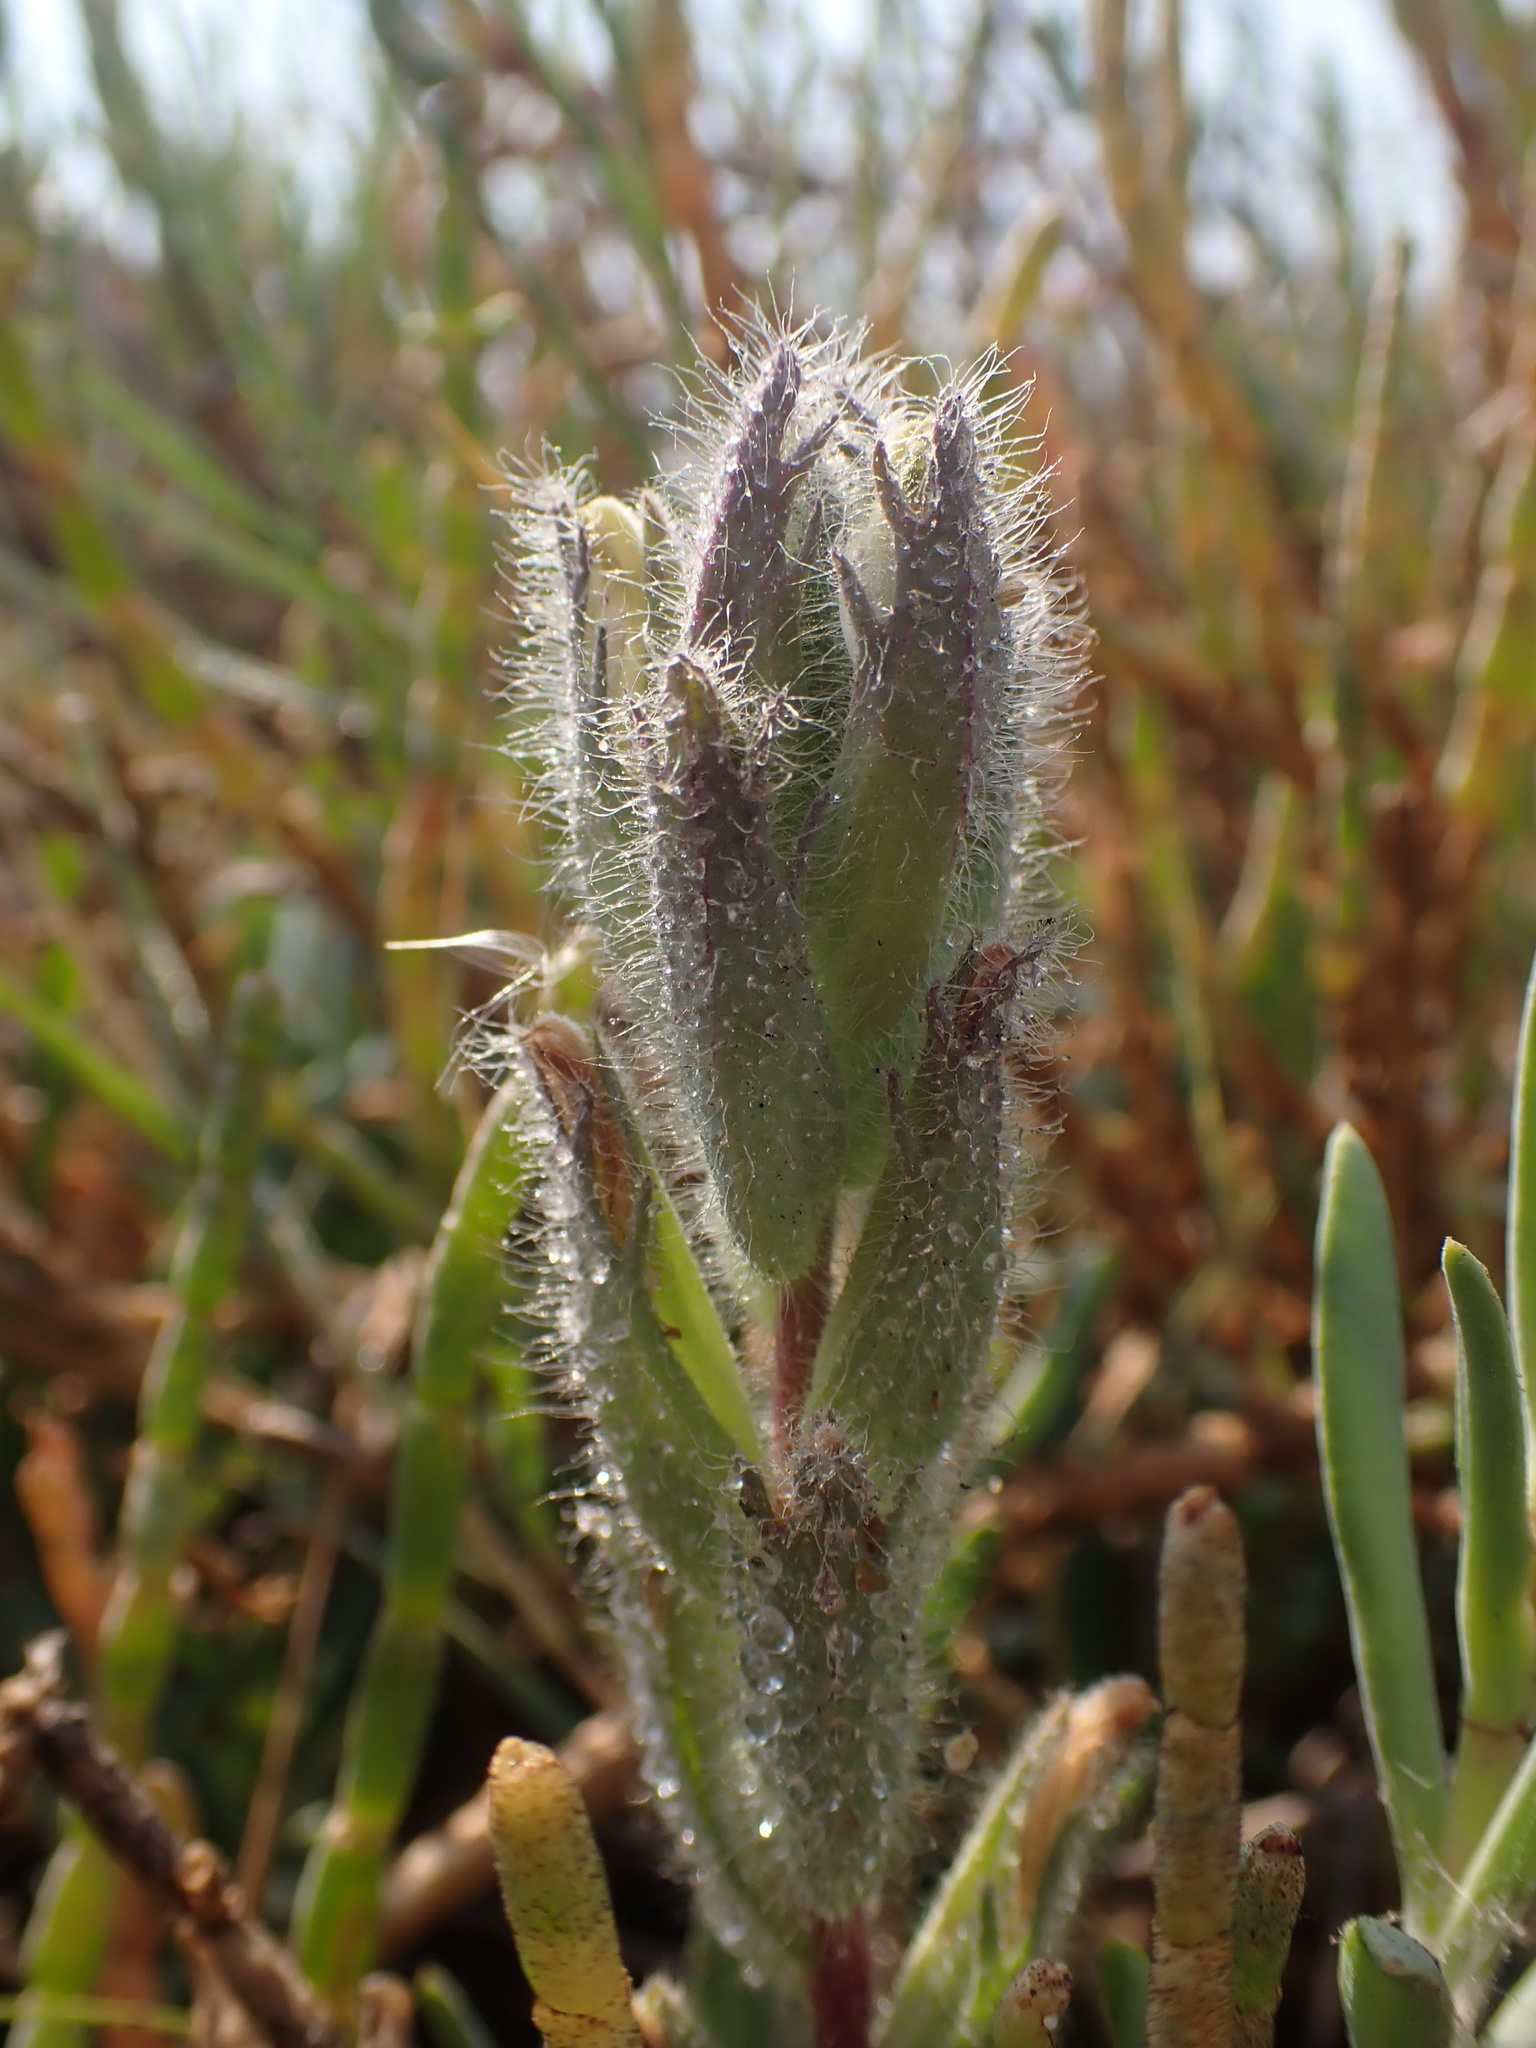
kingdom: Plantae
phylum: Tracheophyta
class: Magnoliopsida
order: Lamiales
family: Orobanchaceae
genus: Chloropyron
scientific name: Chloropyron molle
